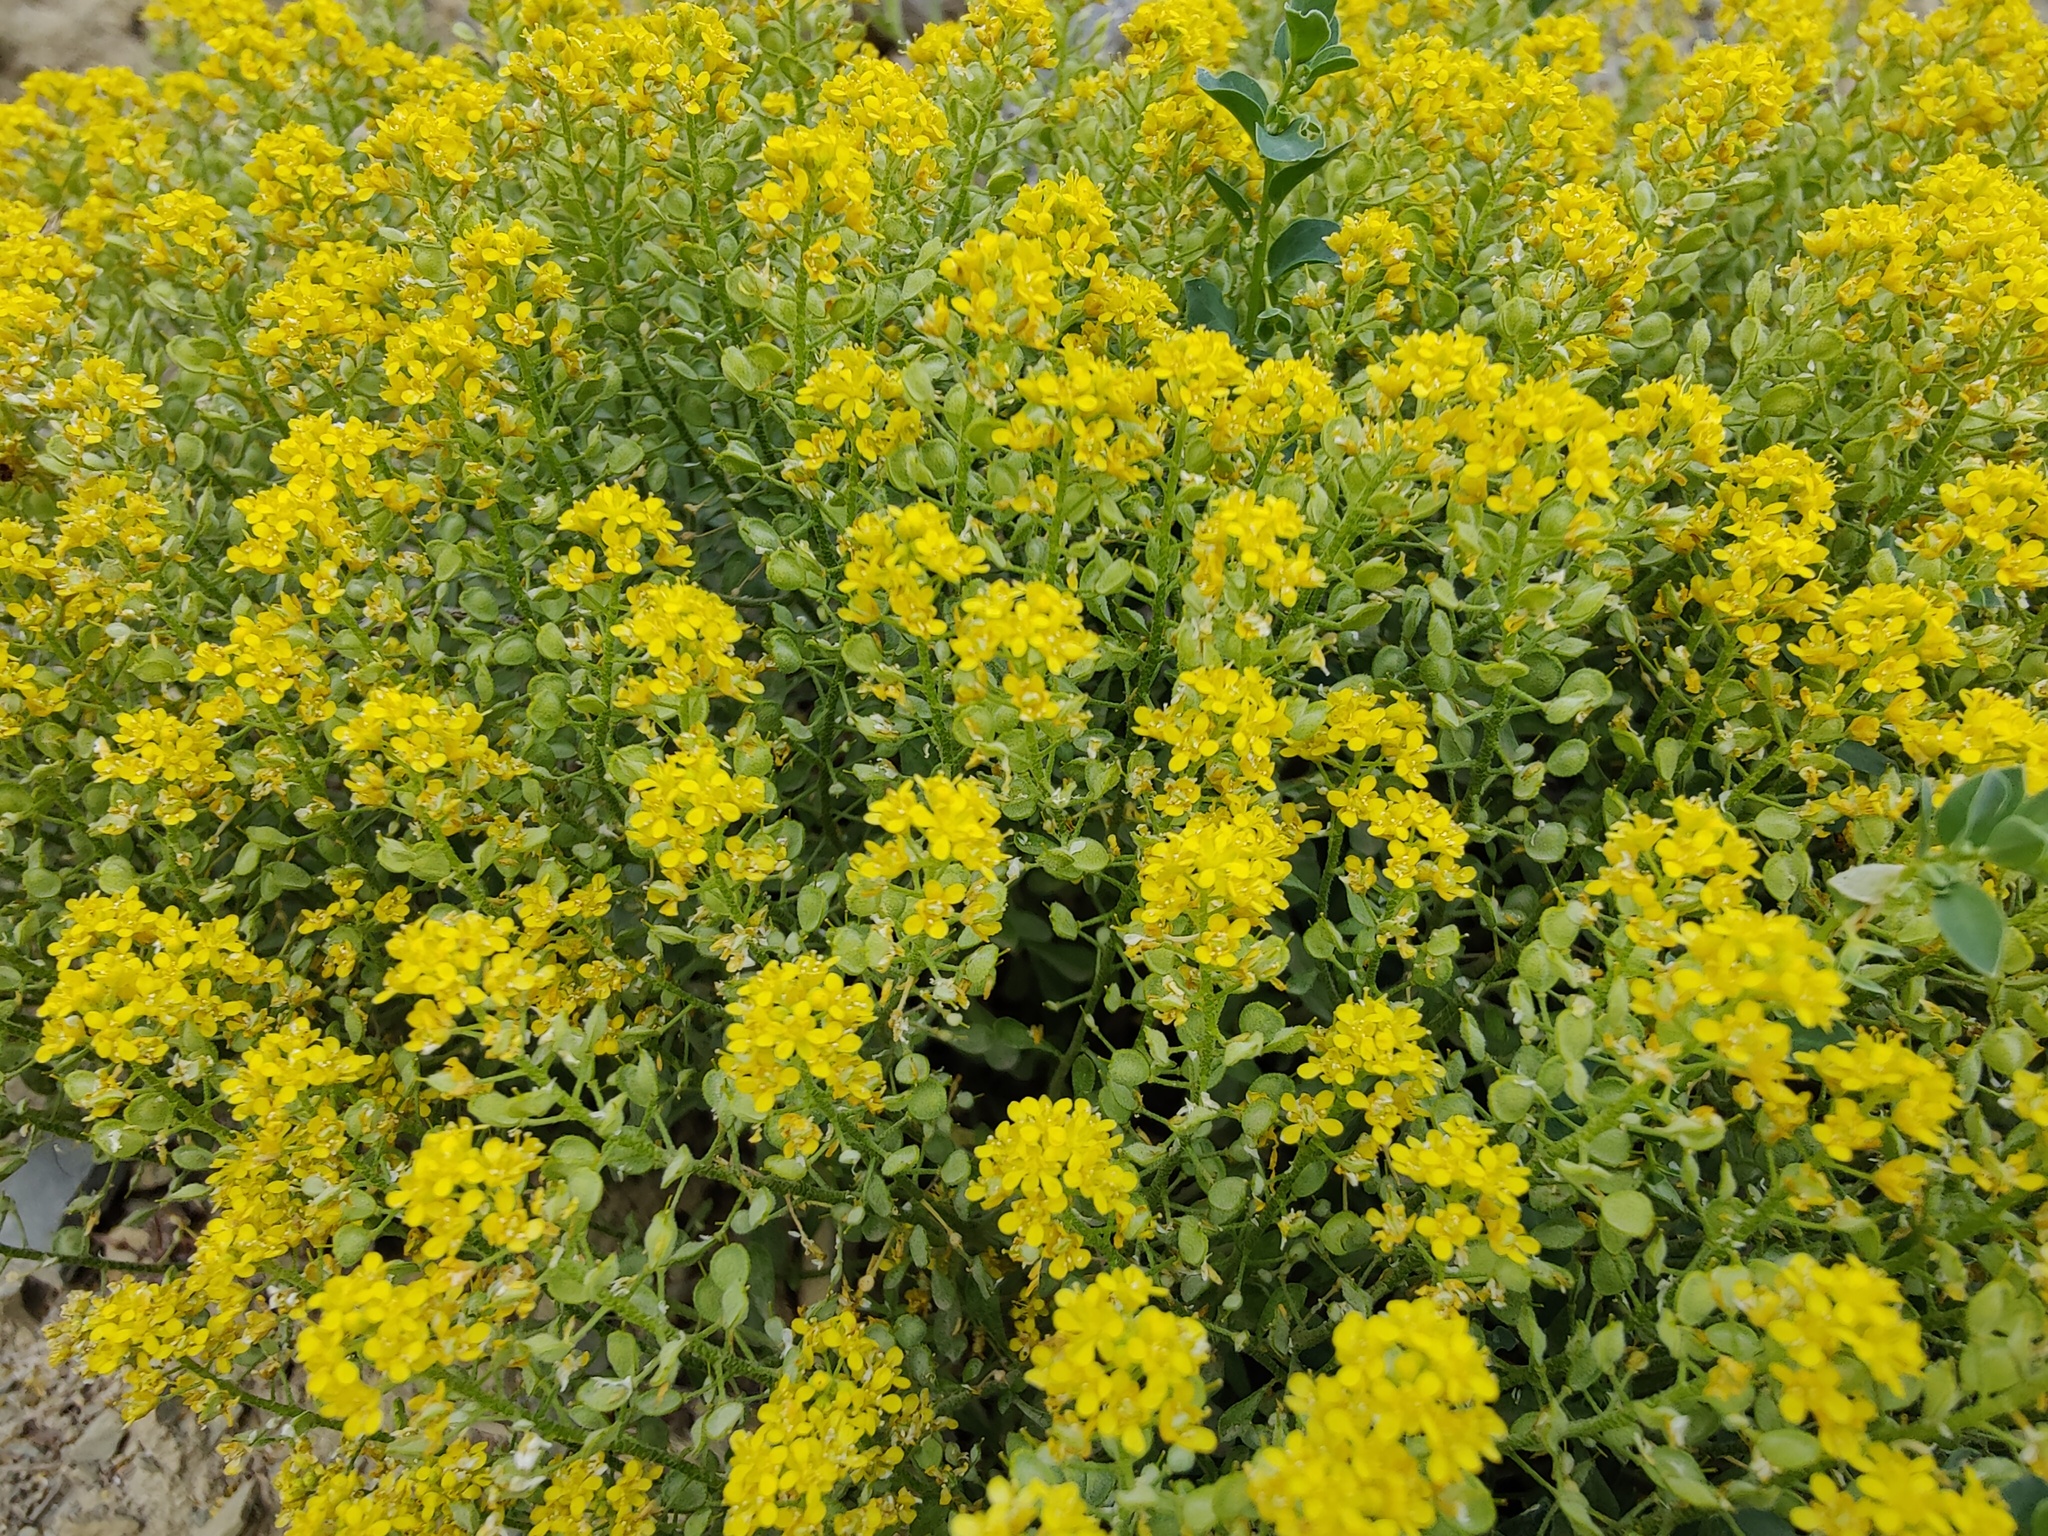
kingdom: Plantae
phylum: Tracheophyta
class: Magnoliopsida
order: Brassicales
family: Brassicaceae
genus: Odontarrhena
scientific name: Odontarrhena obtusifolia
